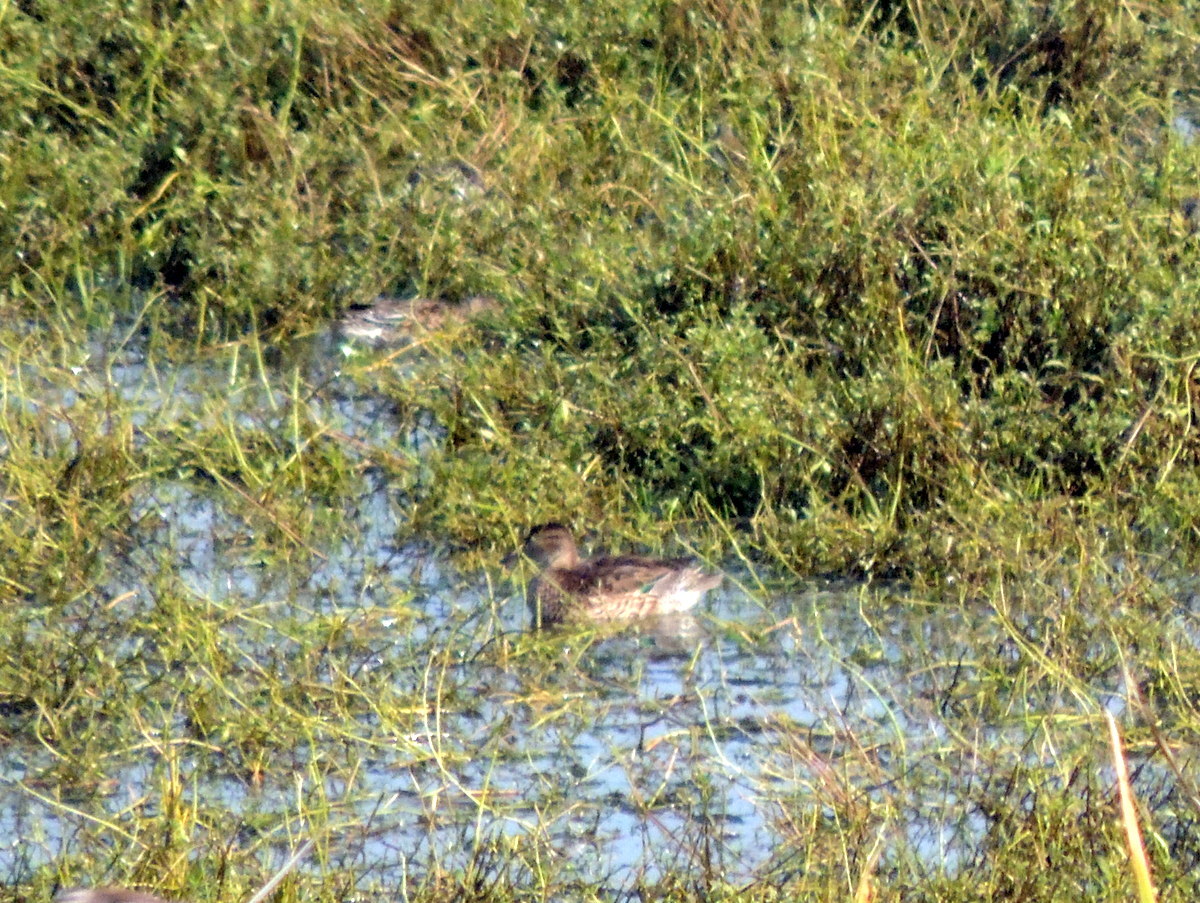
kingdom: Animalia
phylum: Chordata
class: Aves
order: Anseriformes
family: Anatidae
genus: Anas
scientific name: Anas crecca
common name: Eurasian teal
